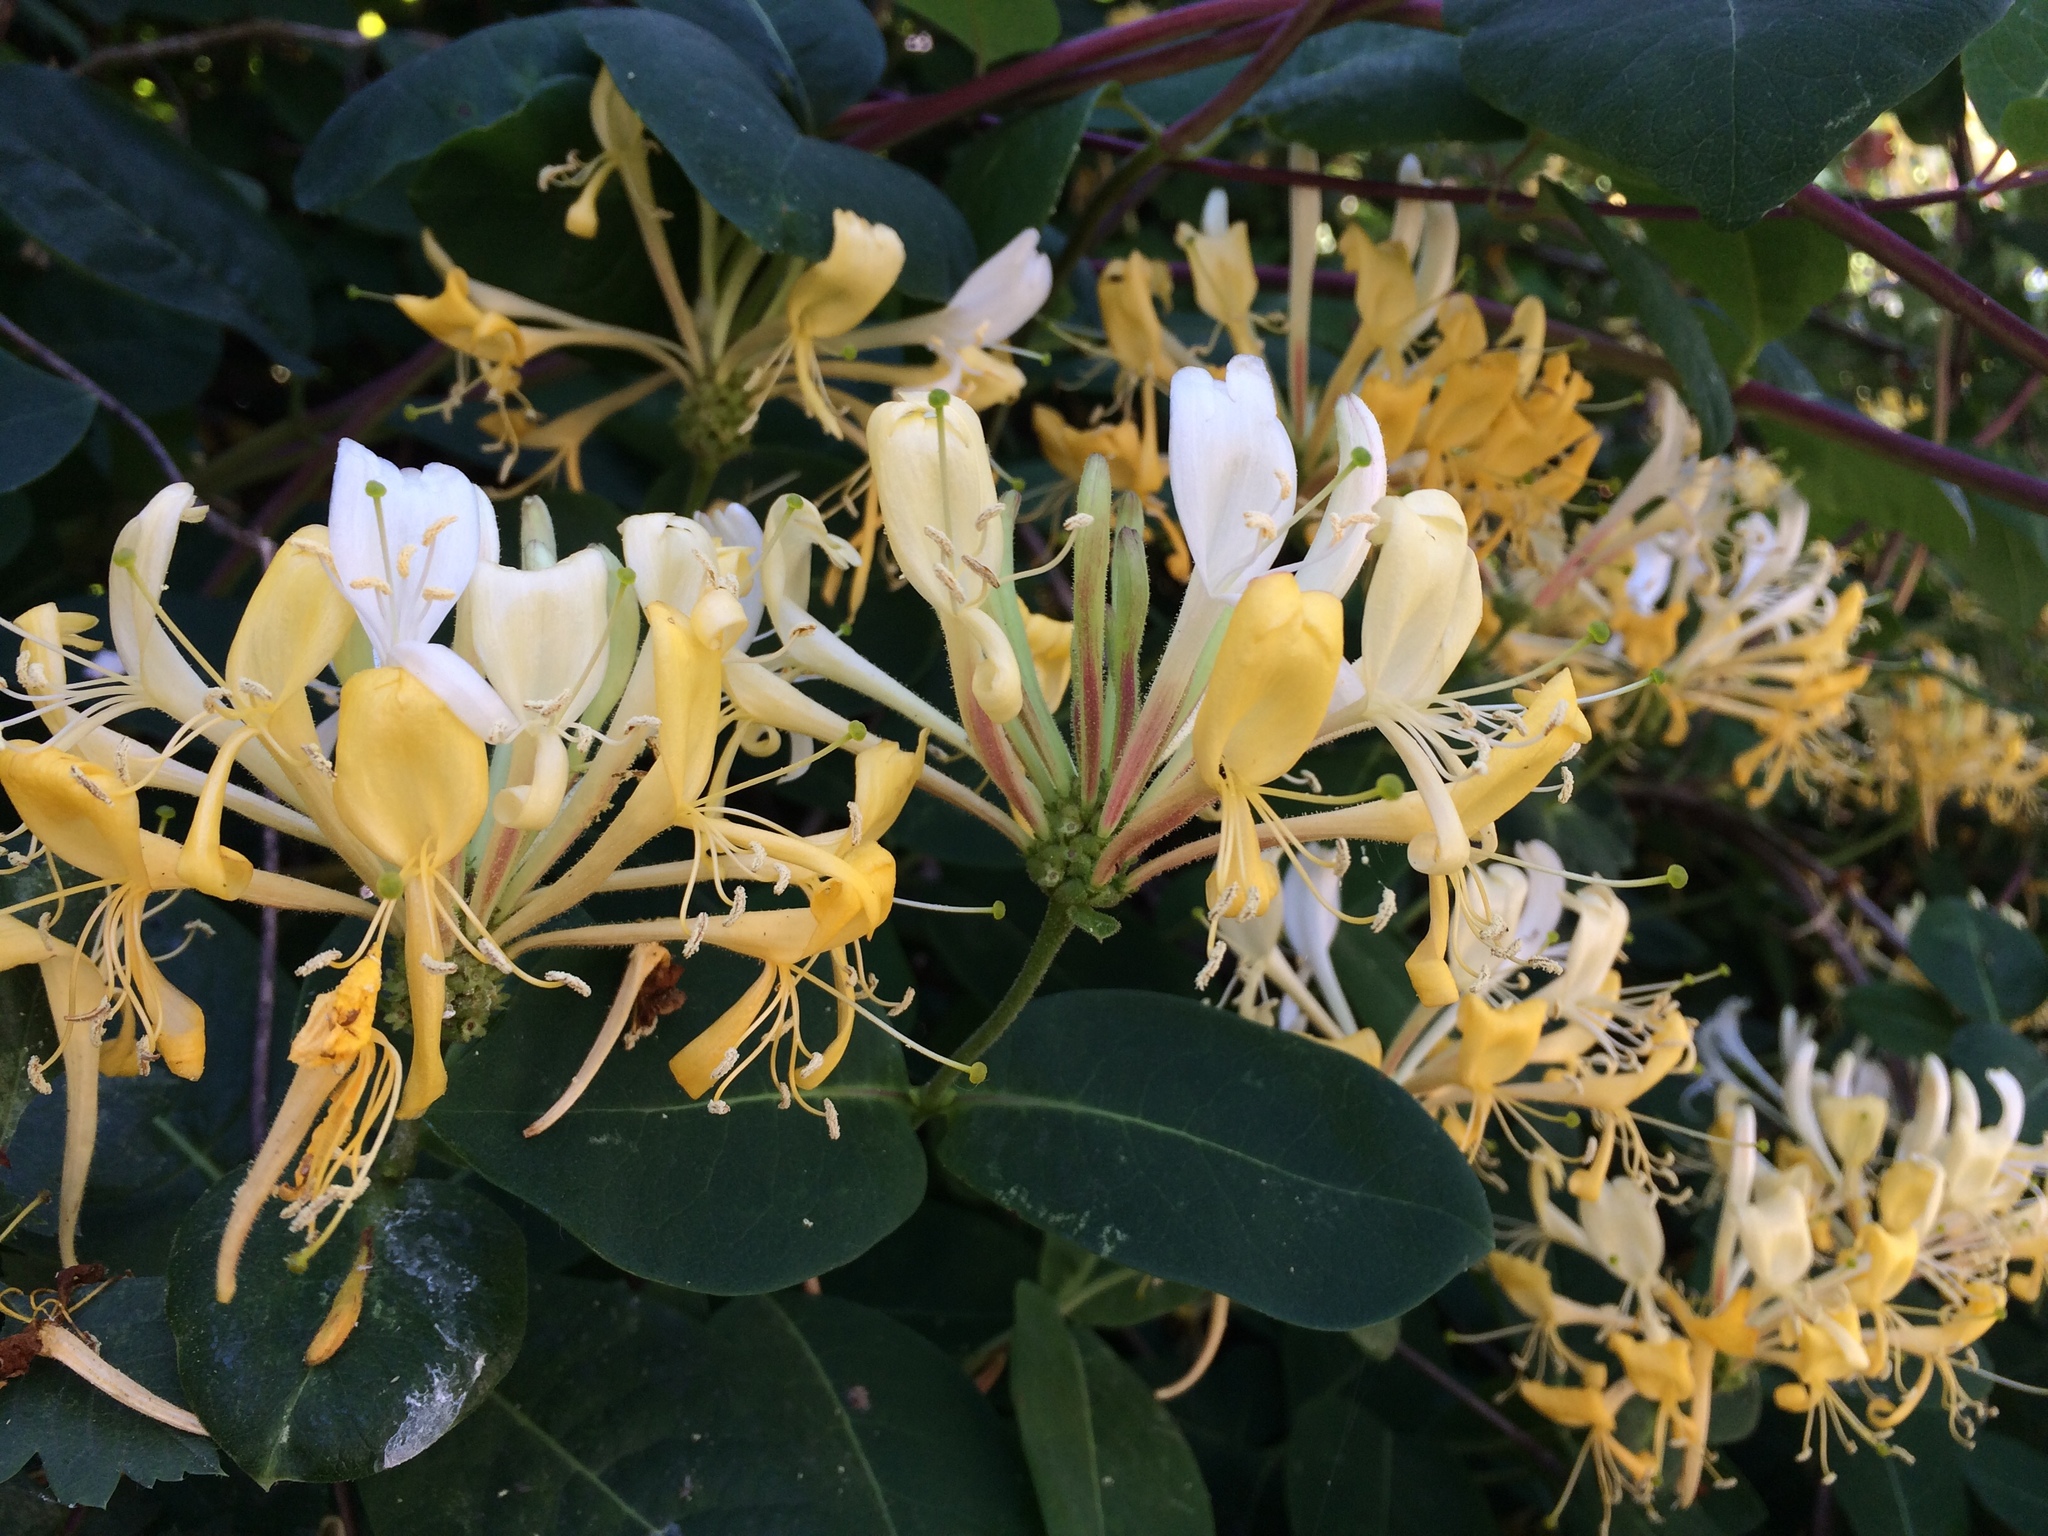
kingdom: Plantae
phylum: Tracheophyta
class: Magnoliopsida
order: Dipsacales
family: Caprifoliaceae
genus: Lonicera
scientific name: Lonicera periclymenum
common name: European honeysuckle
